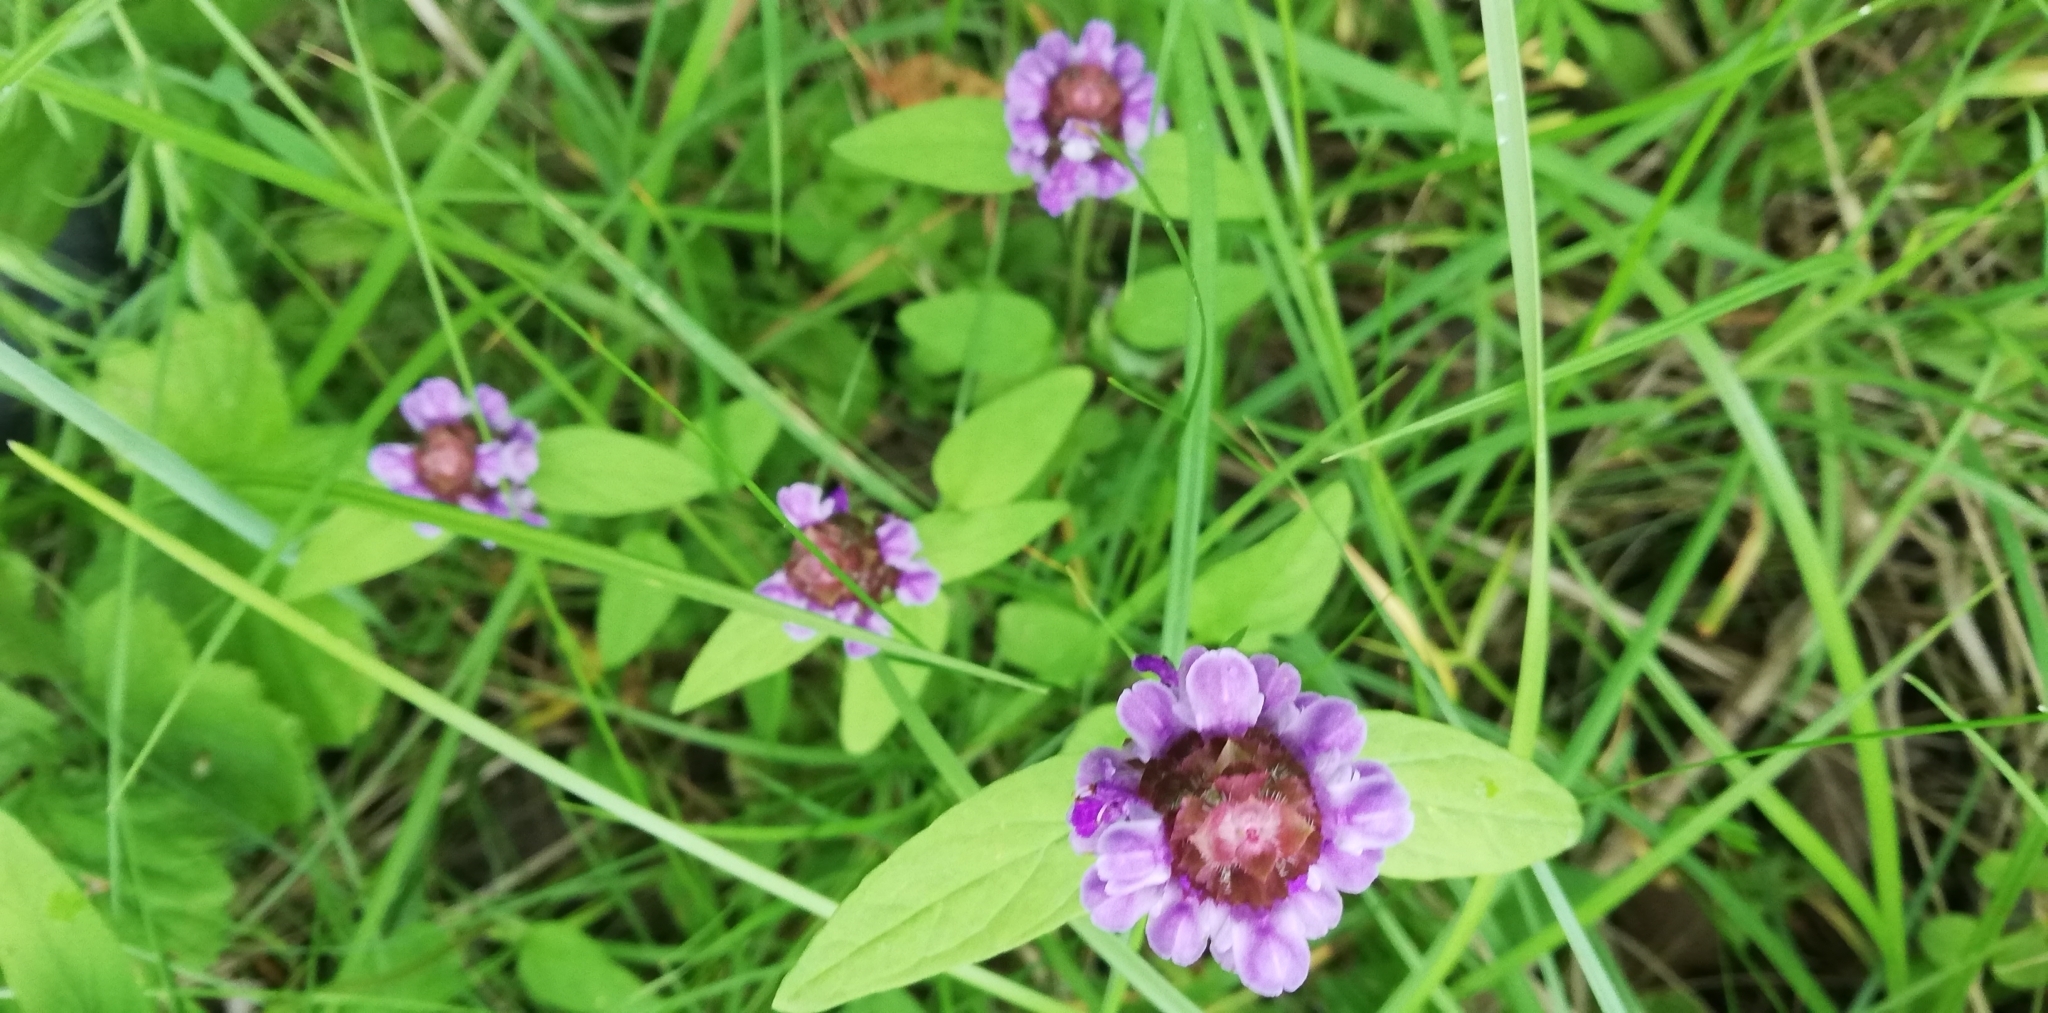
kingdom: Plantae
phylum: Tracheophyta
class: Magnoliopsida
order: Lamiales
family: Lamiaceae
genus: Prunella
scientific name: Prunella vulgaris
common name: Heal-all
